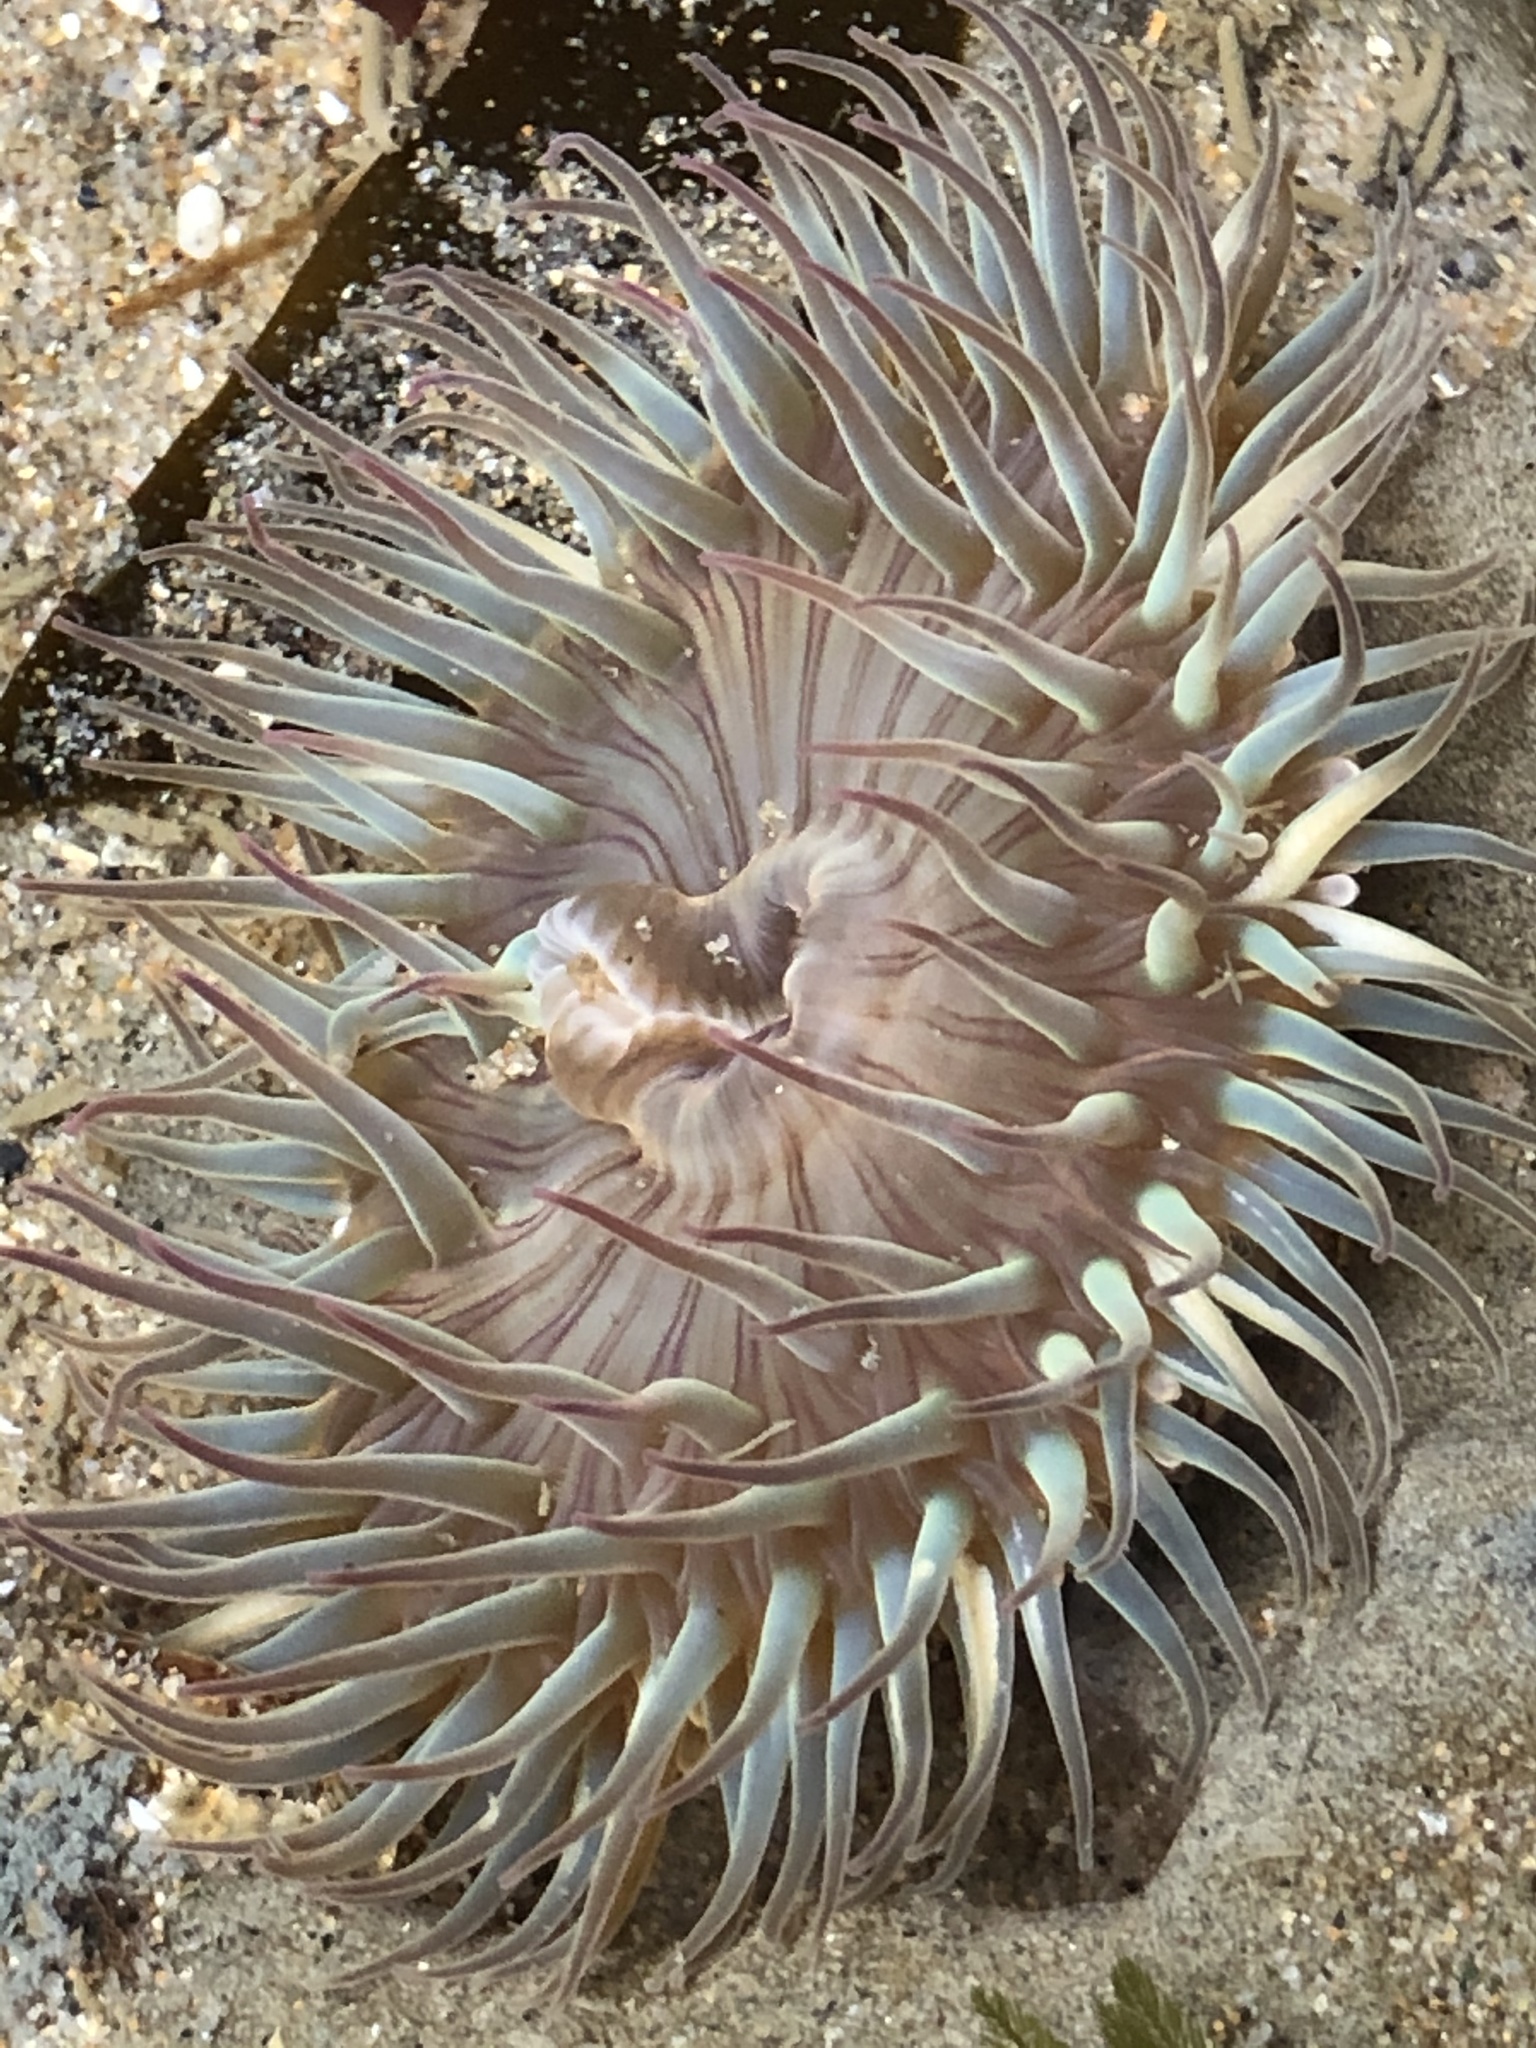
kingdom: Animalia
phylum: Cnidaria
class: Anthozoa
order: Actiniaria
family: Actiniidae
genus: Anthopleura
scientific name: Anthopleura sola
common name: Sun anemone
